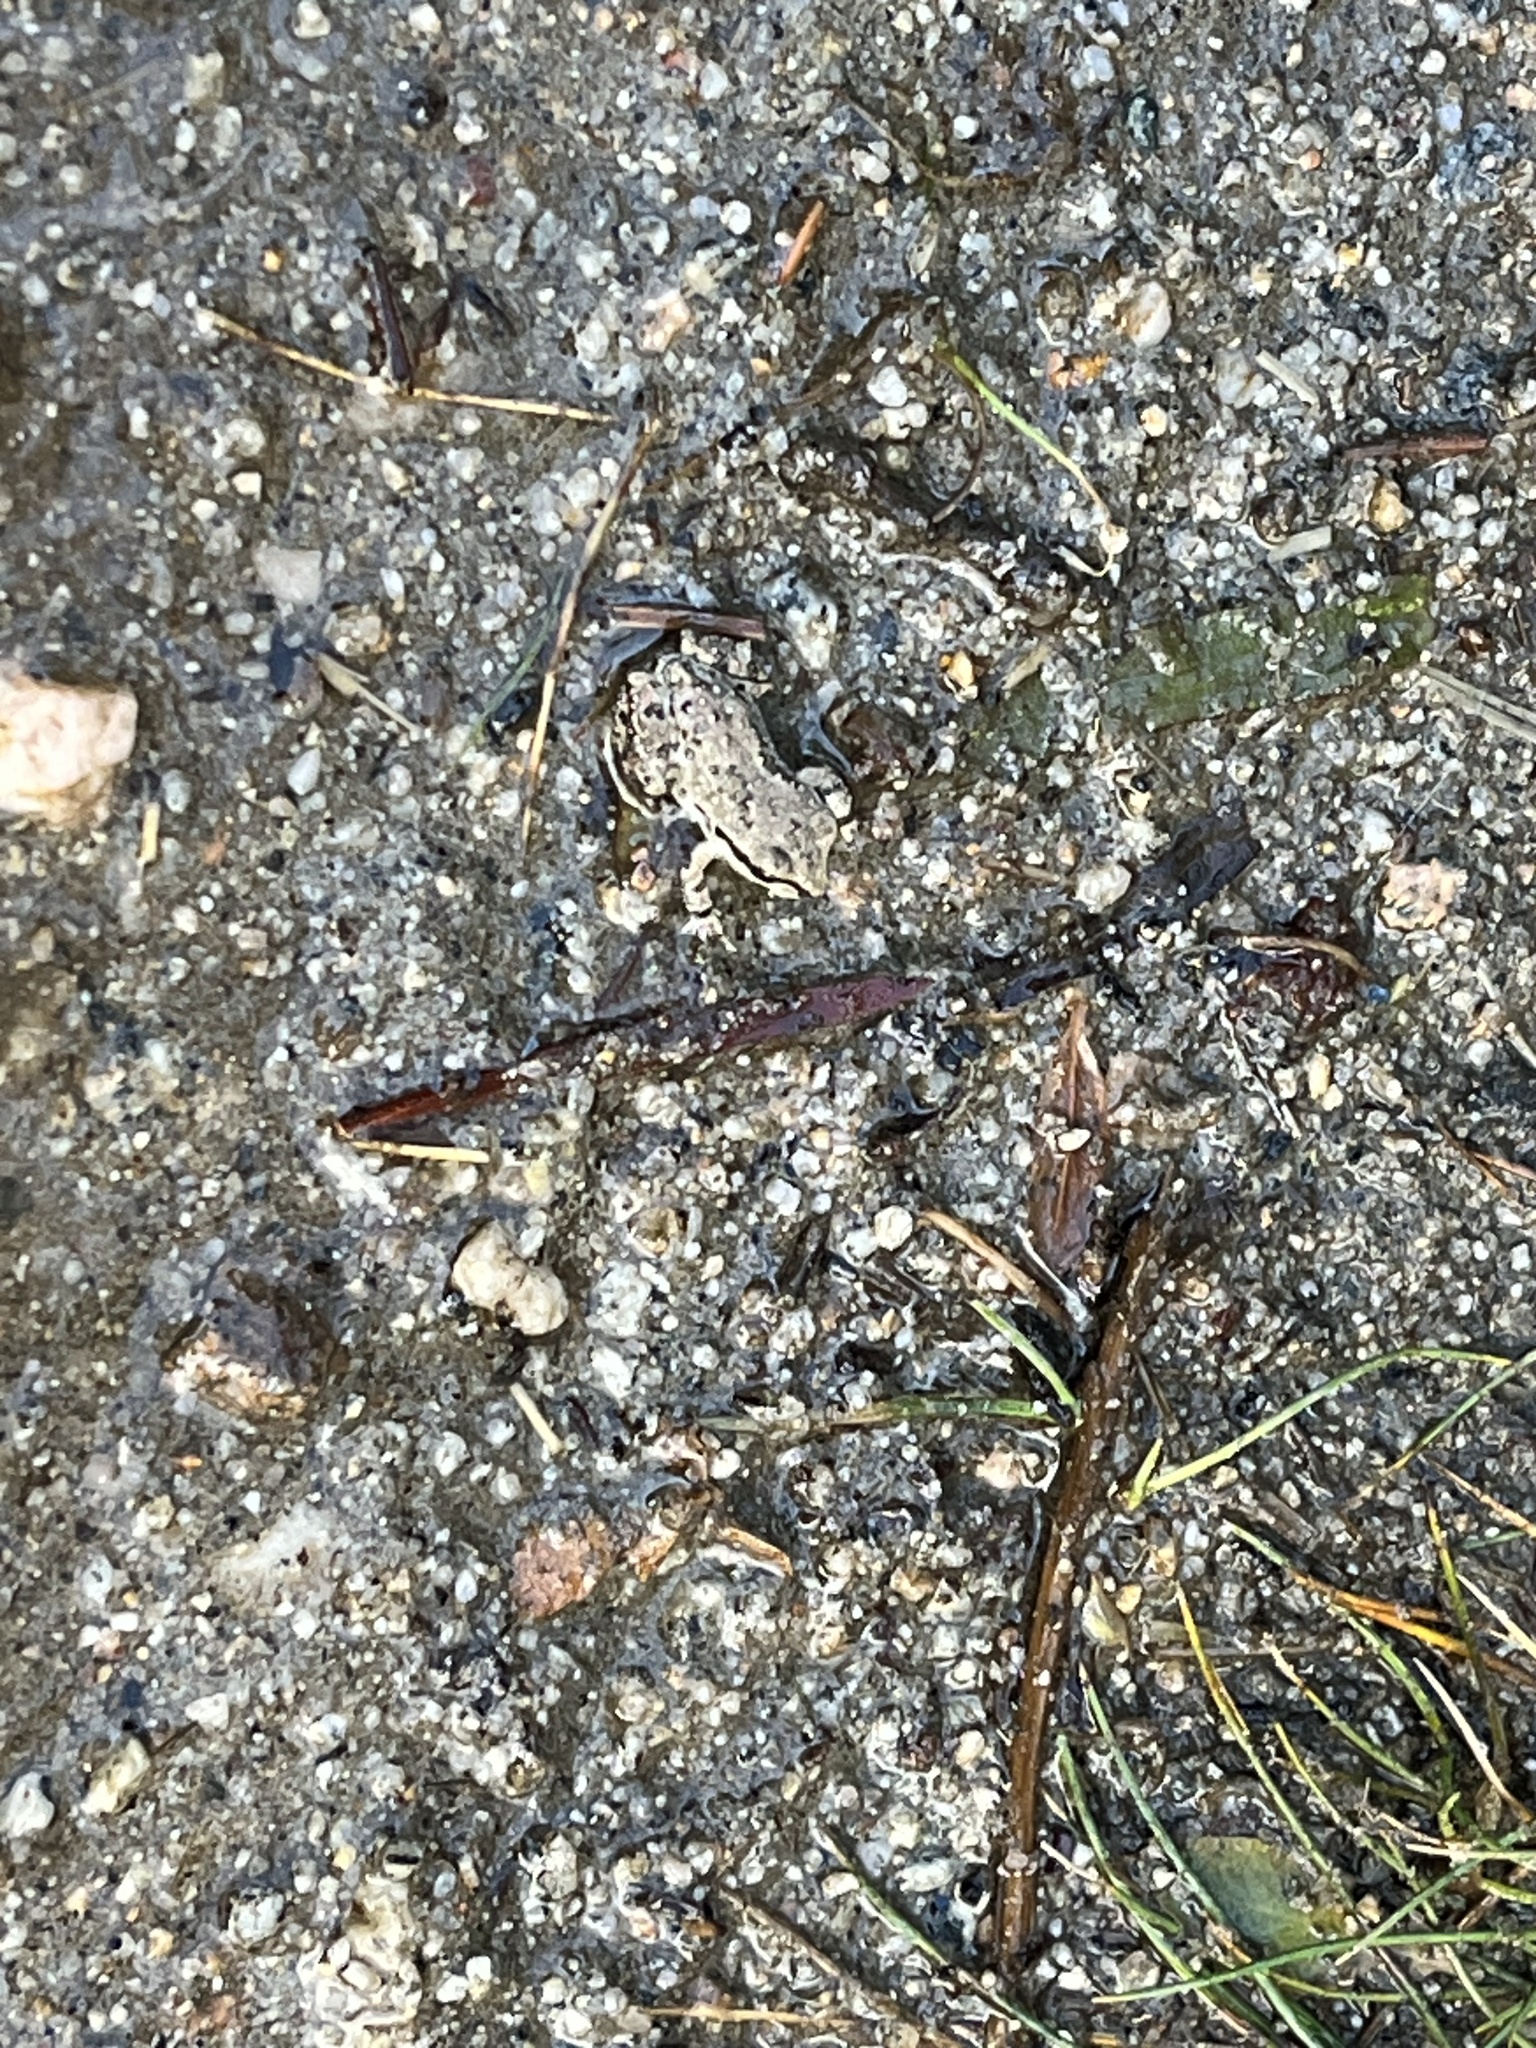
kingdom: Animalia
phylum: Chordata
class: Amphibia
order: Anura
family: Hylidae
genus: Pseudacris
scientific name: Pseudacris regilla
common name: Pacific chorus frog
